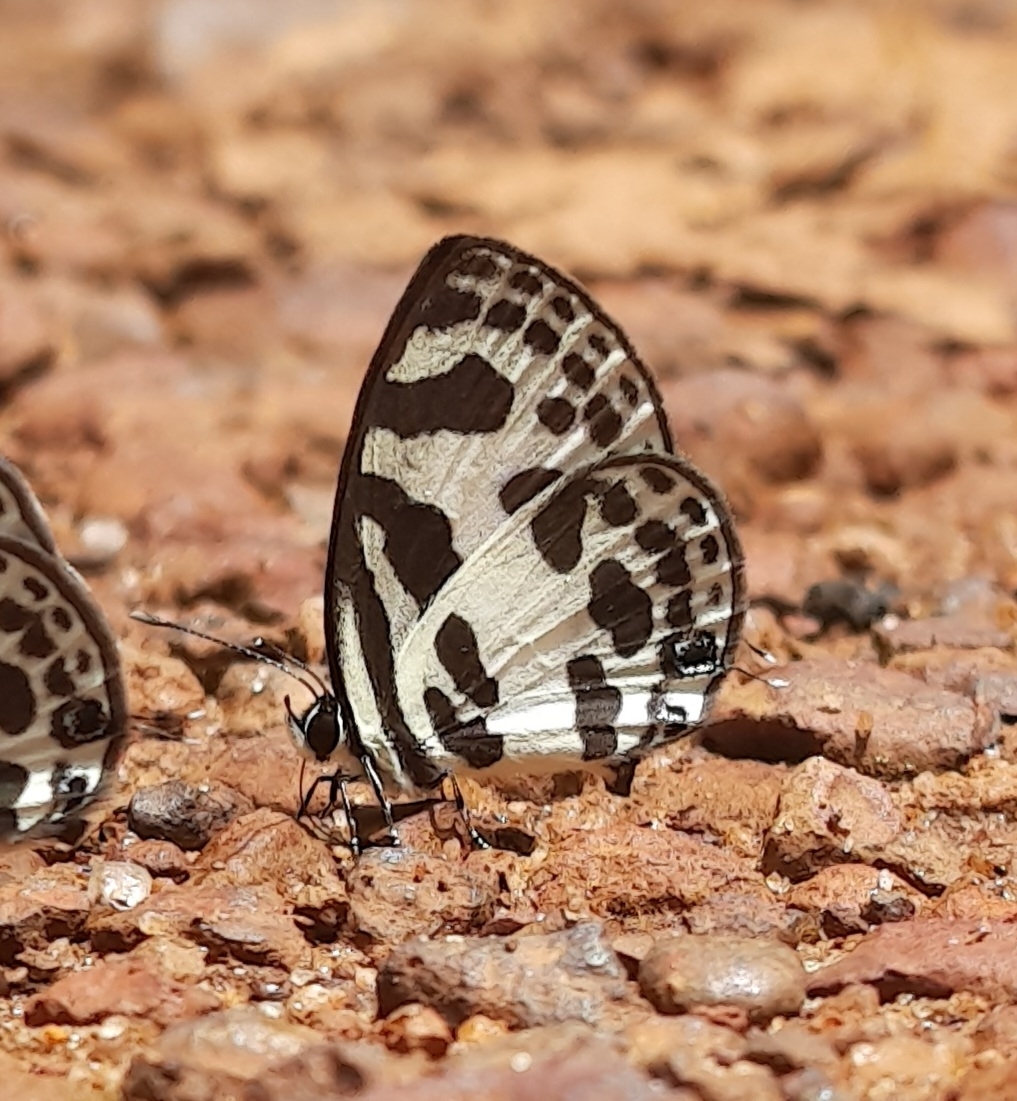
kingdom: Animalia
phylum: Arthropoda
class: Insecta
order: Lepidoptera
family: Lycaenidae
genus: Discolampa
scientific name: Discolampa ethion
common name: Banded blue pierrot
